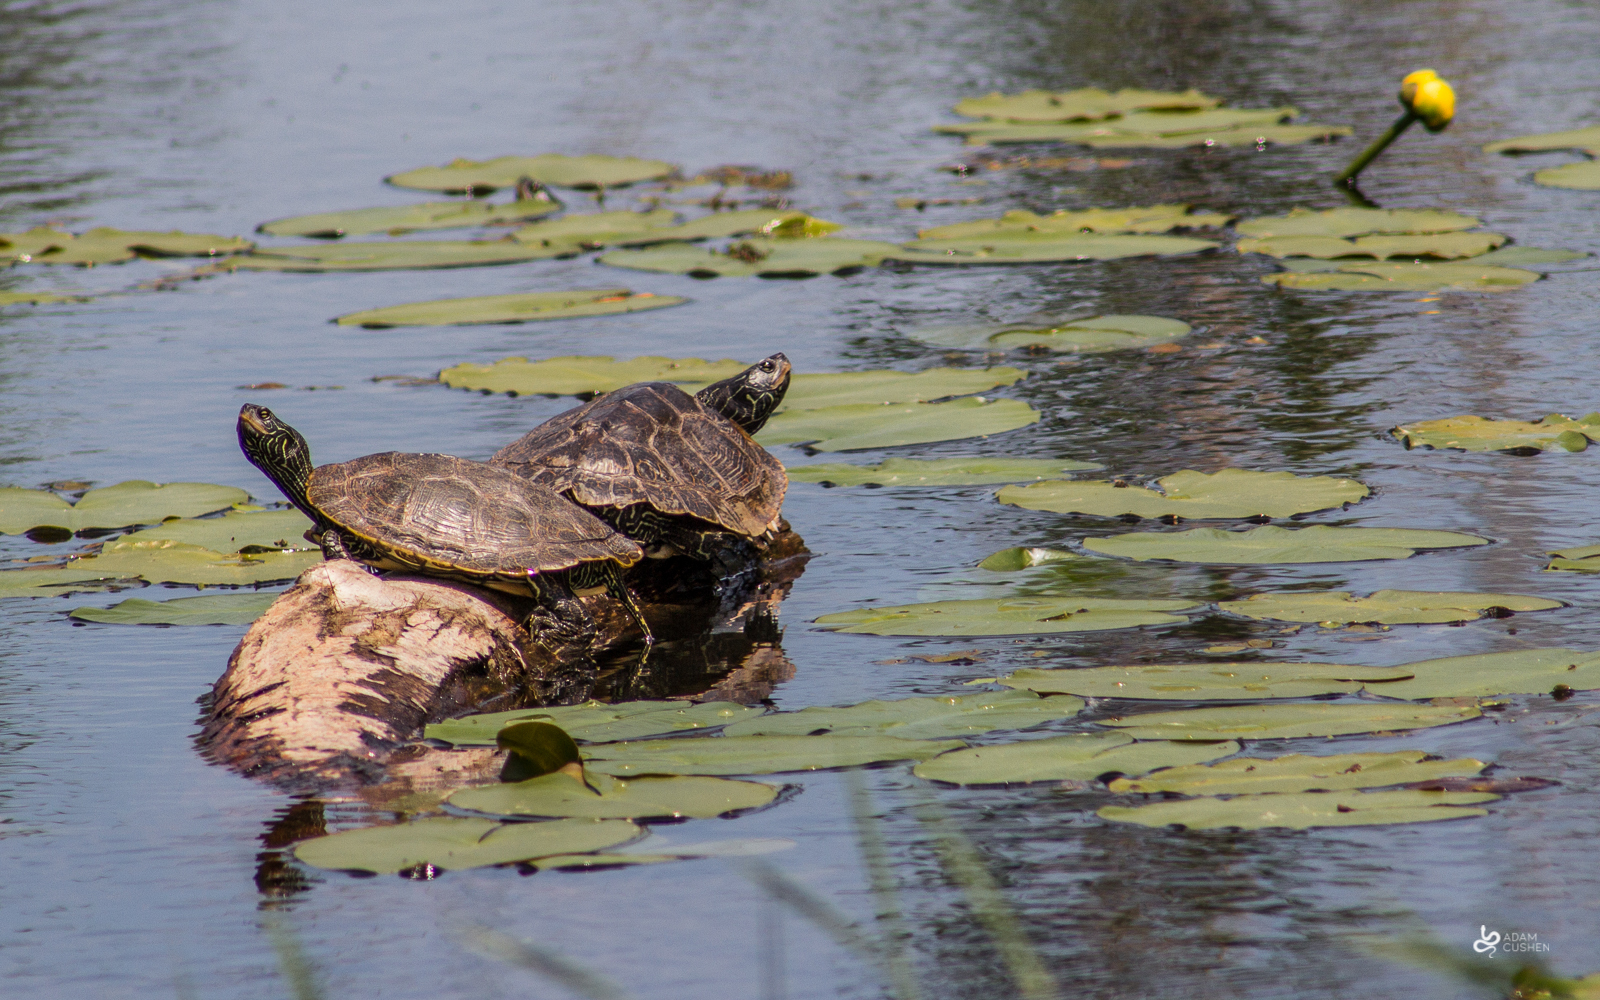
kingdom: Animalia
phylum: Chordata
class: Testudines
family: Emydidae
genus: Graptemys
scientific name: Graptemys geographica
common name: Common map turtle
